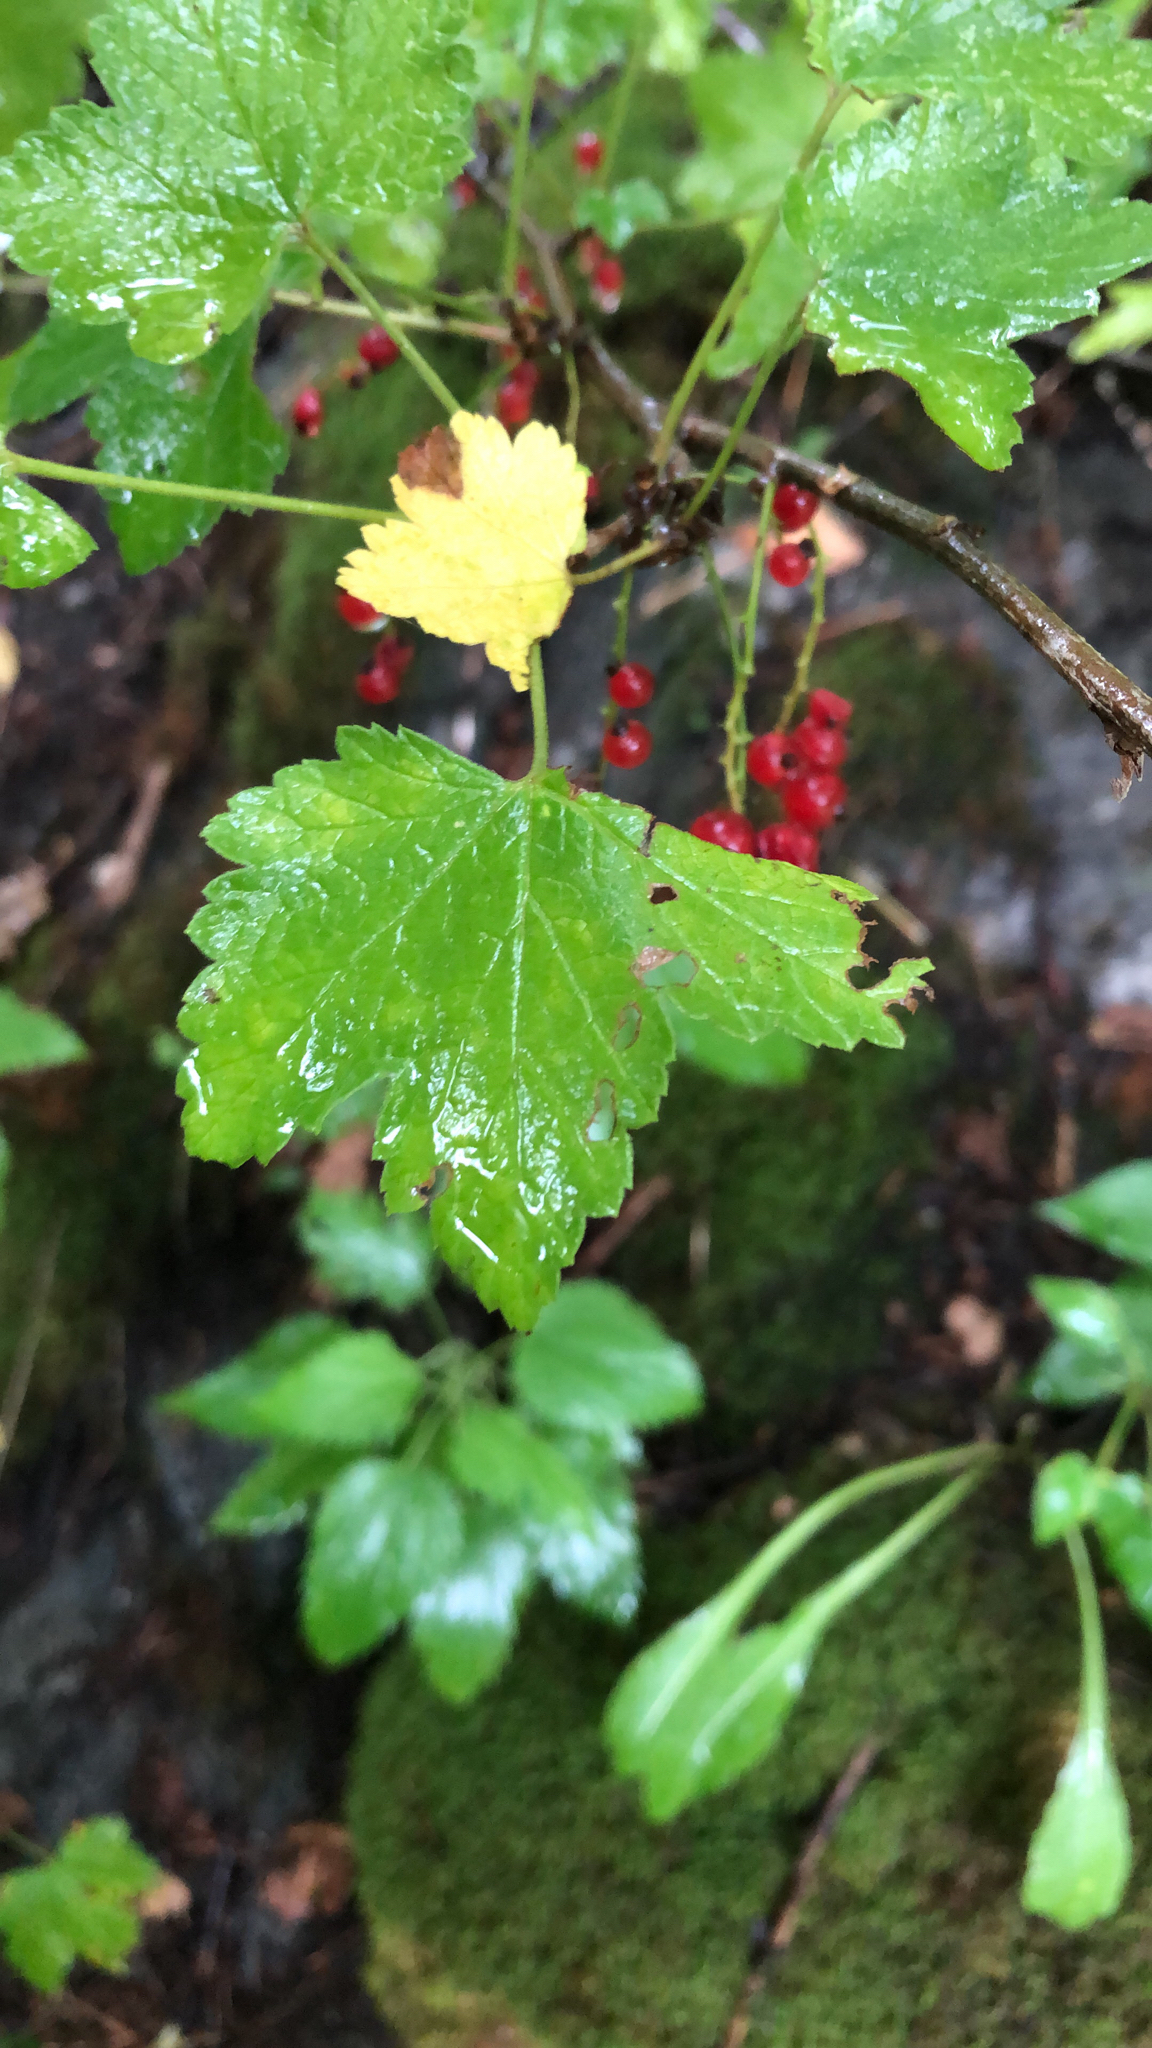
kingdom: Plantae
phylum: Tracheophyta
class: Magnoliopsida
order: Saxifragales
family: Grossulariaceae
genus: Ribes
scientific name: Ribes rubrum
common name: Red currant
